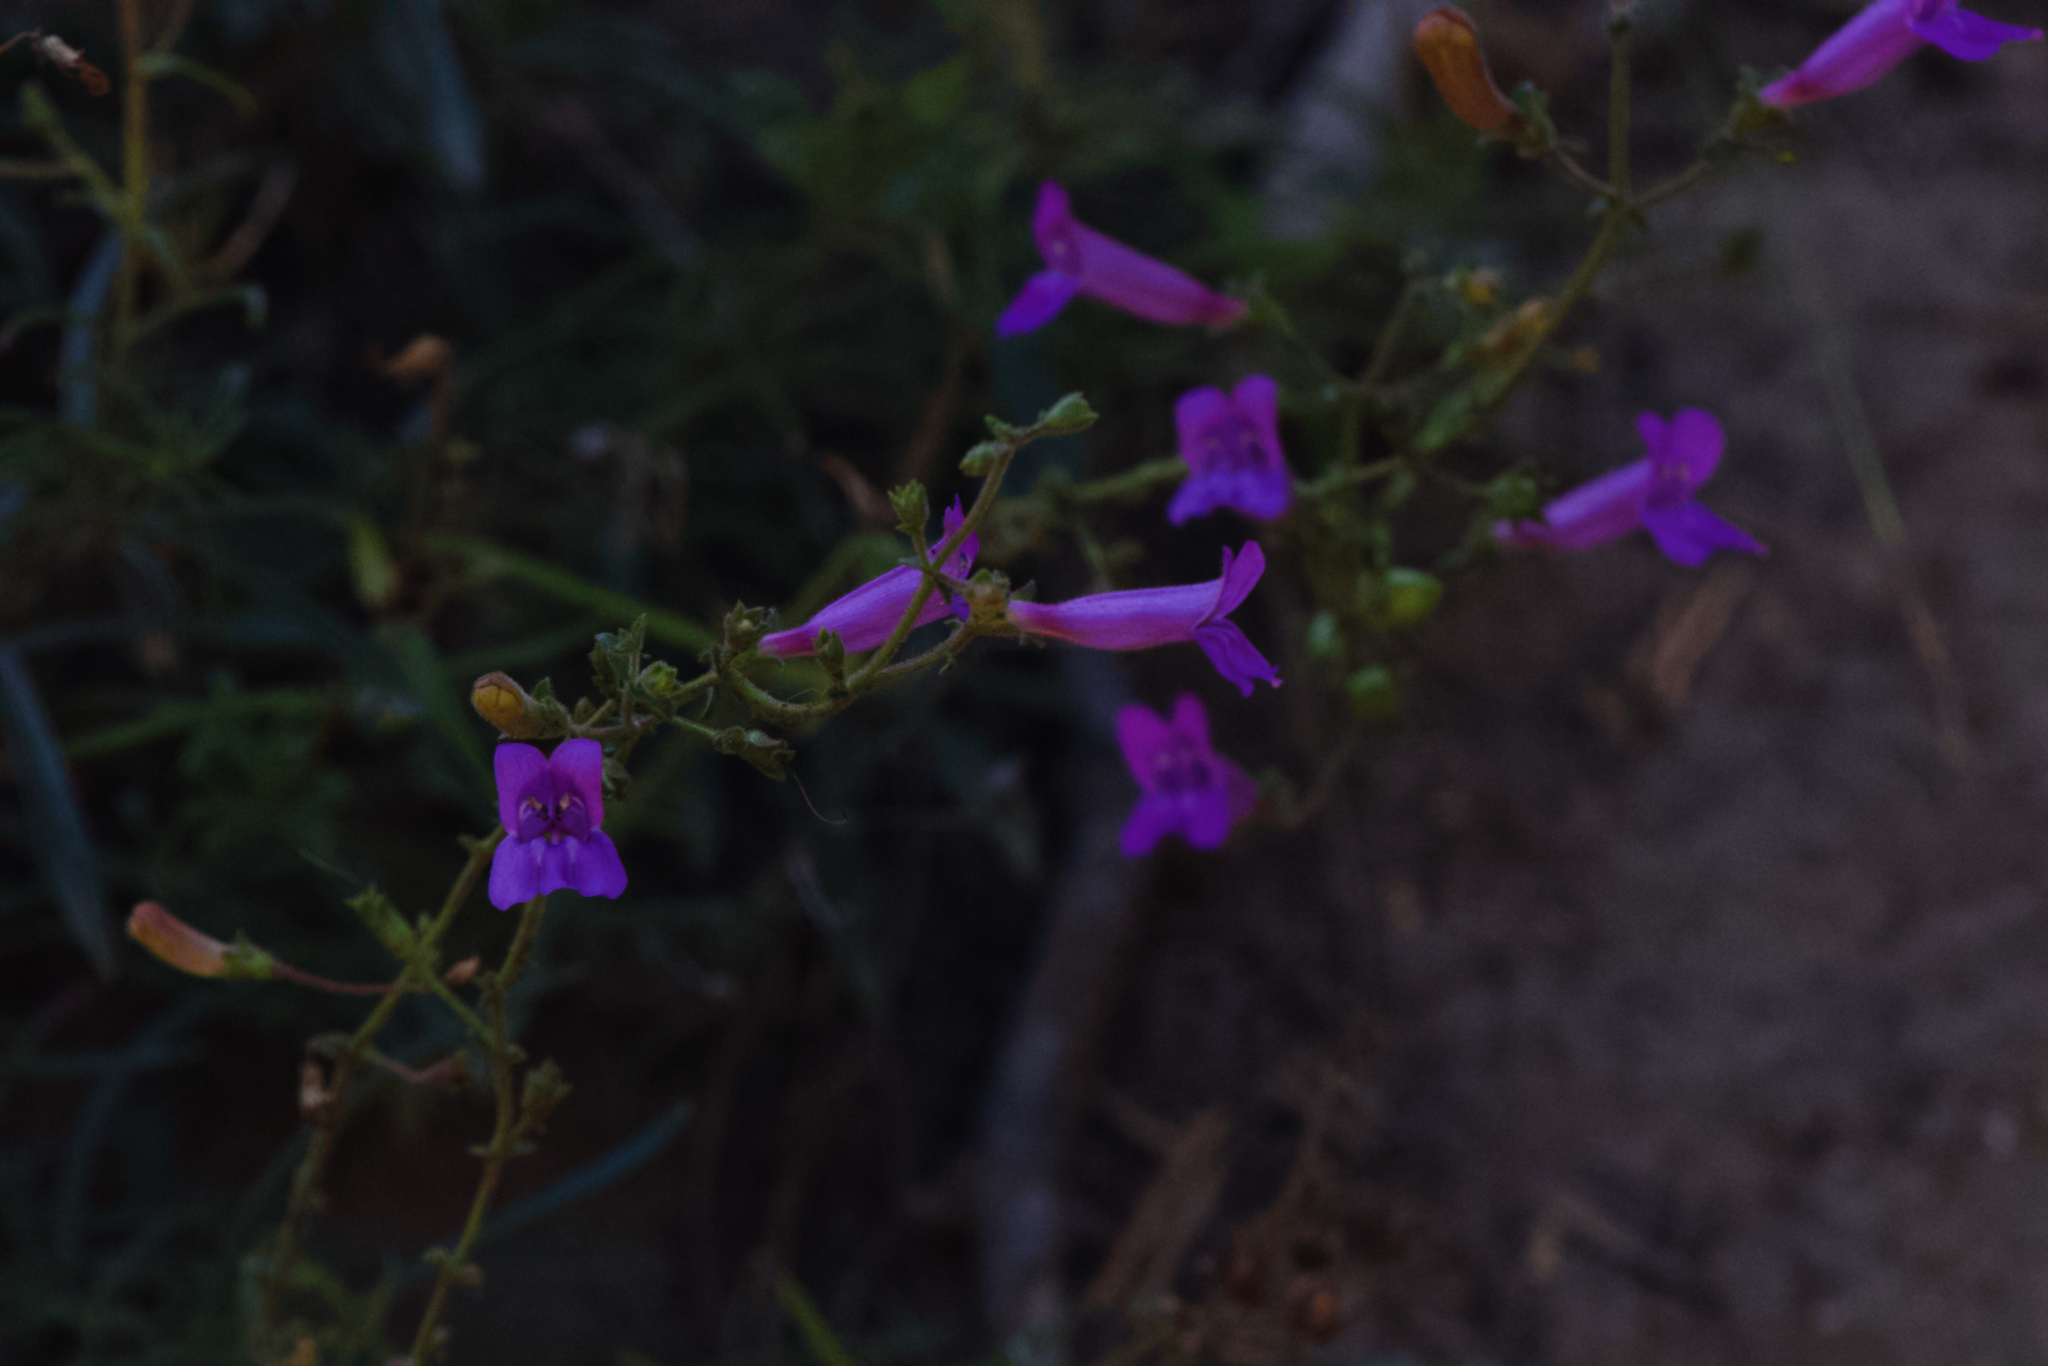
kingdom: Plantae
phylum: Tracheophyta
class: Magnoliopsida
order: Lamiales
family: Plantaginaceae
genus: Penstemon
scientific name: Penstemon laetus
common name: Gay penstemon
